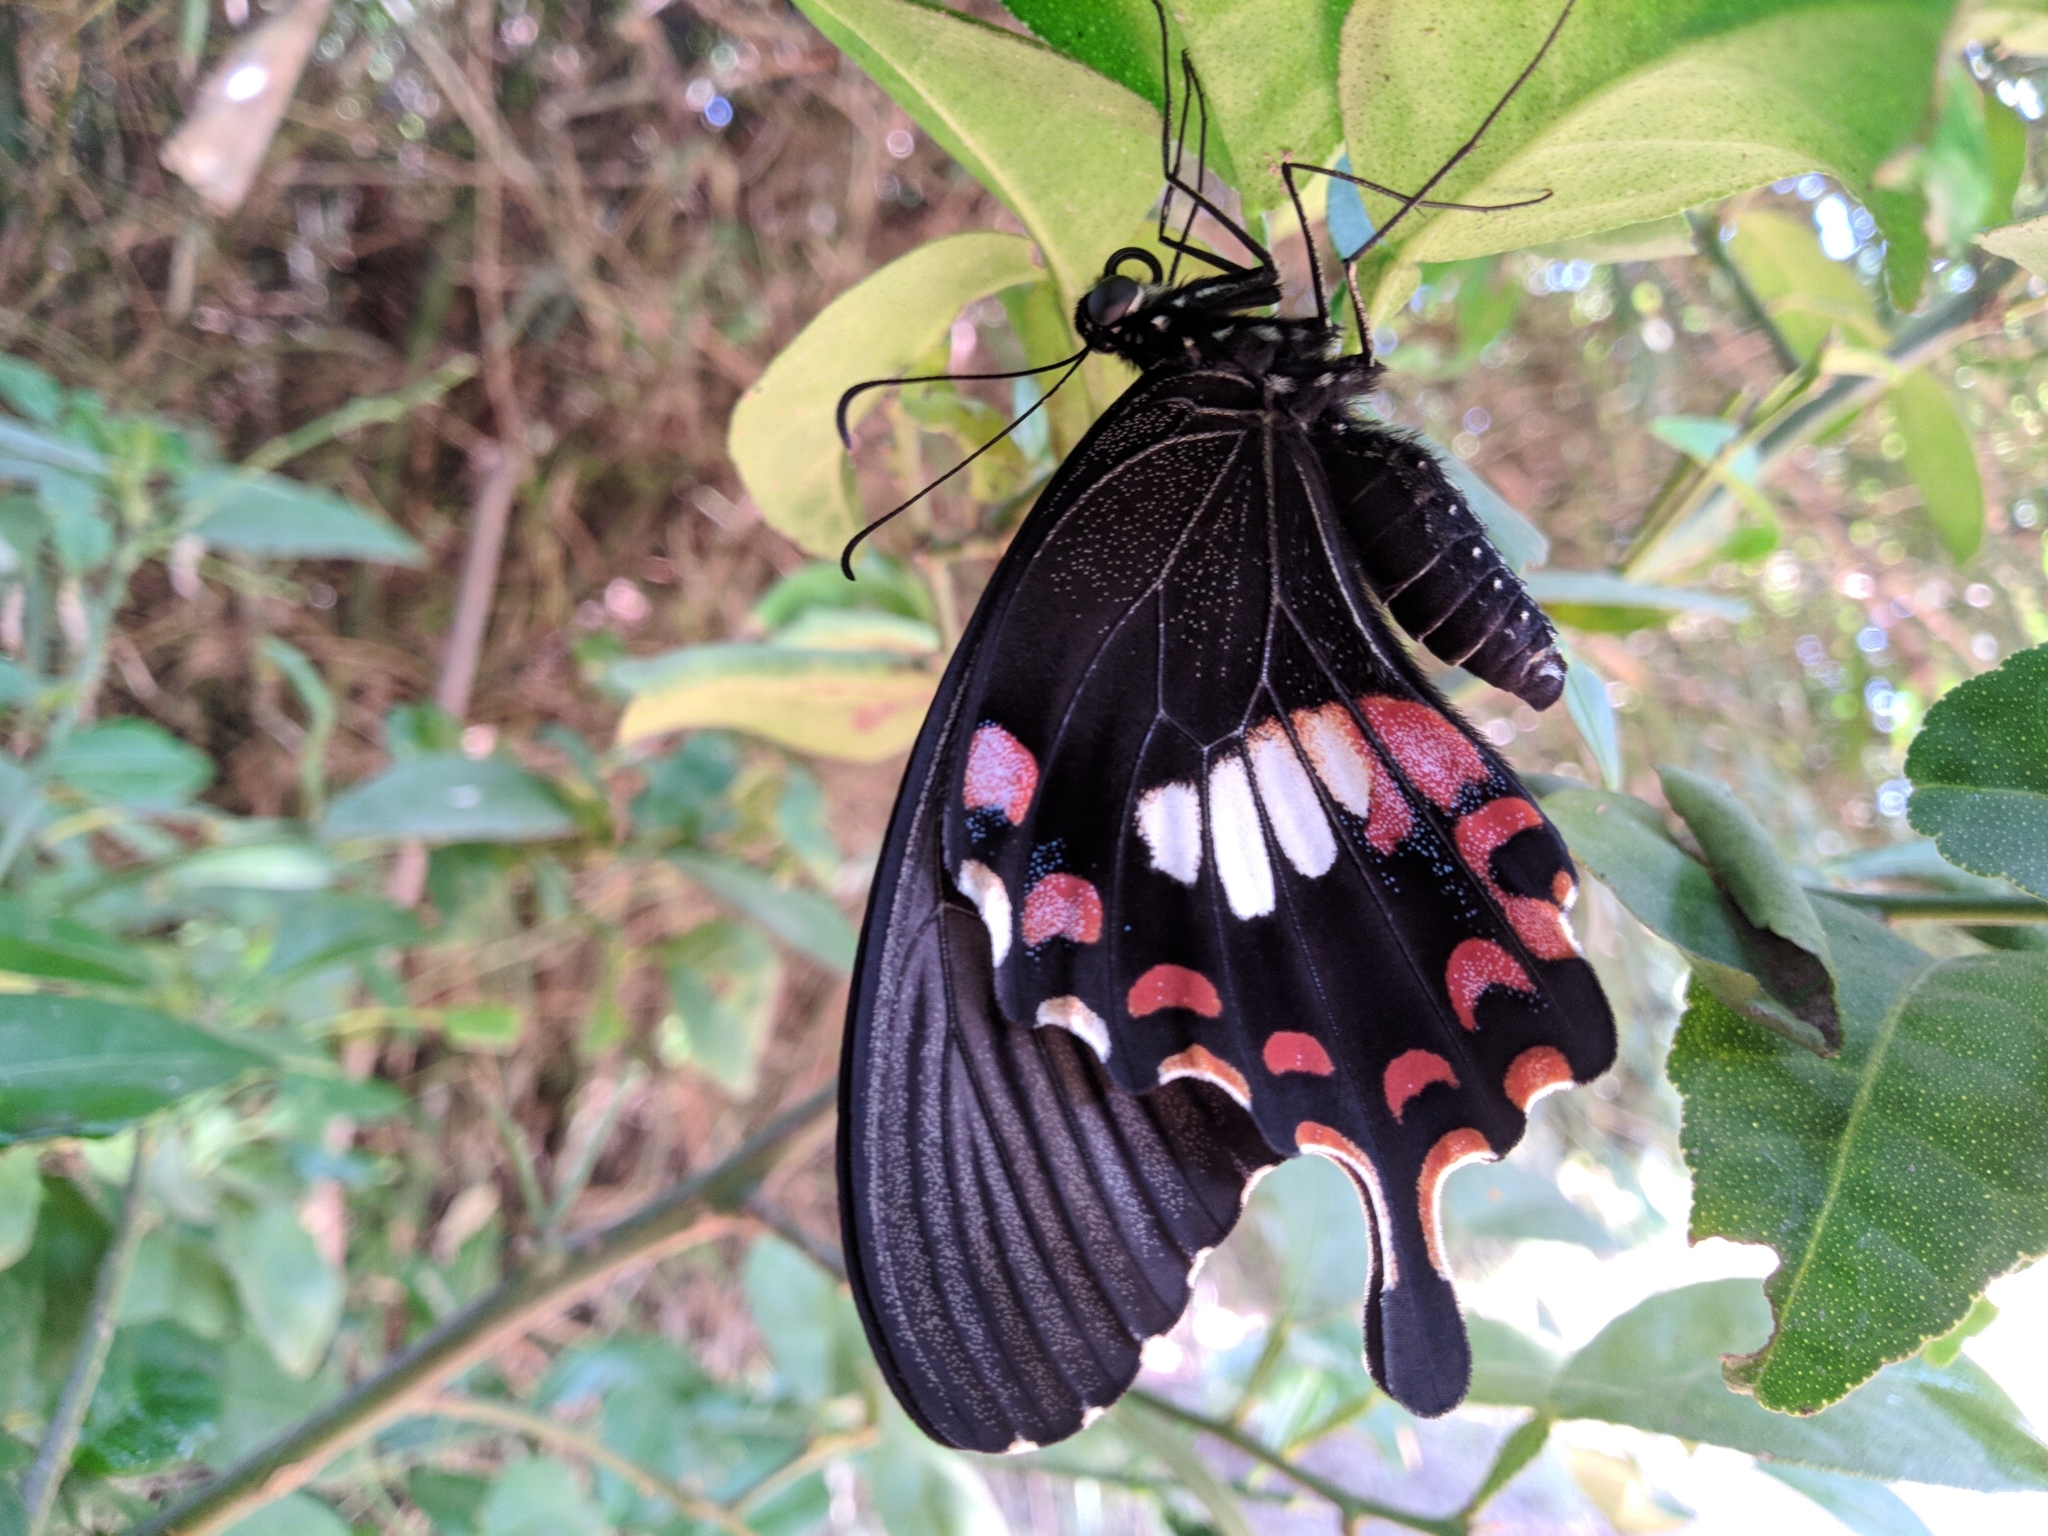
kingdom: Animalia
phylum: Arthropoda
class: Insecta
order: Lepidoptera
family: Papilionidae
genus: Papilio
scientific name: Papilio polytes
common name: Common mormon
